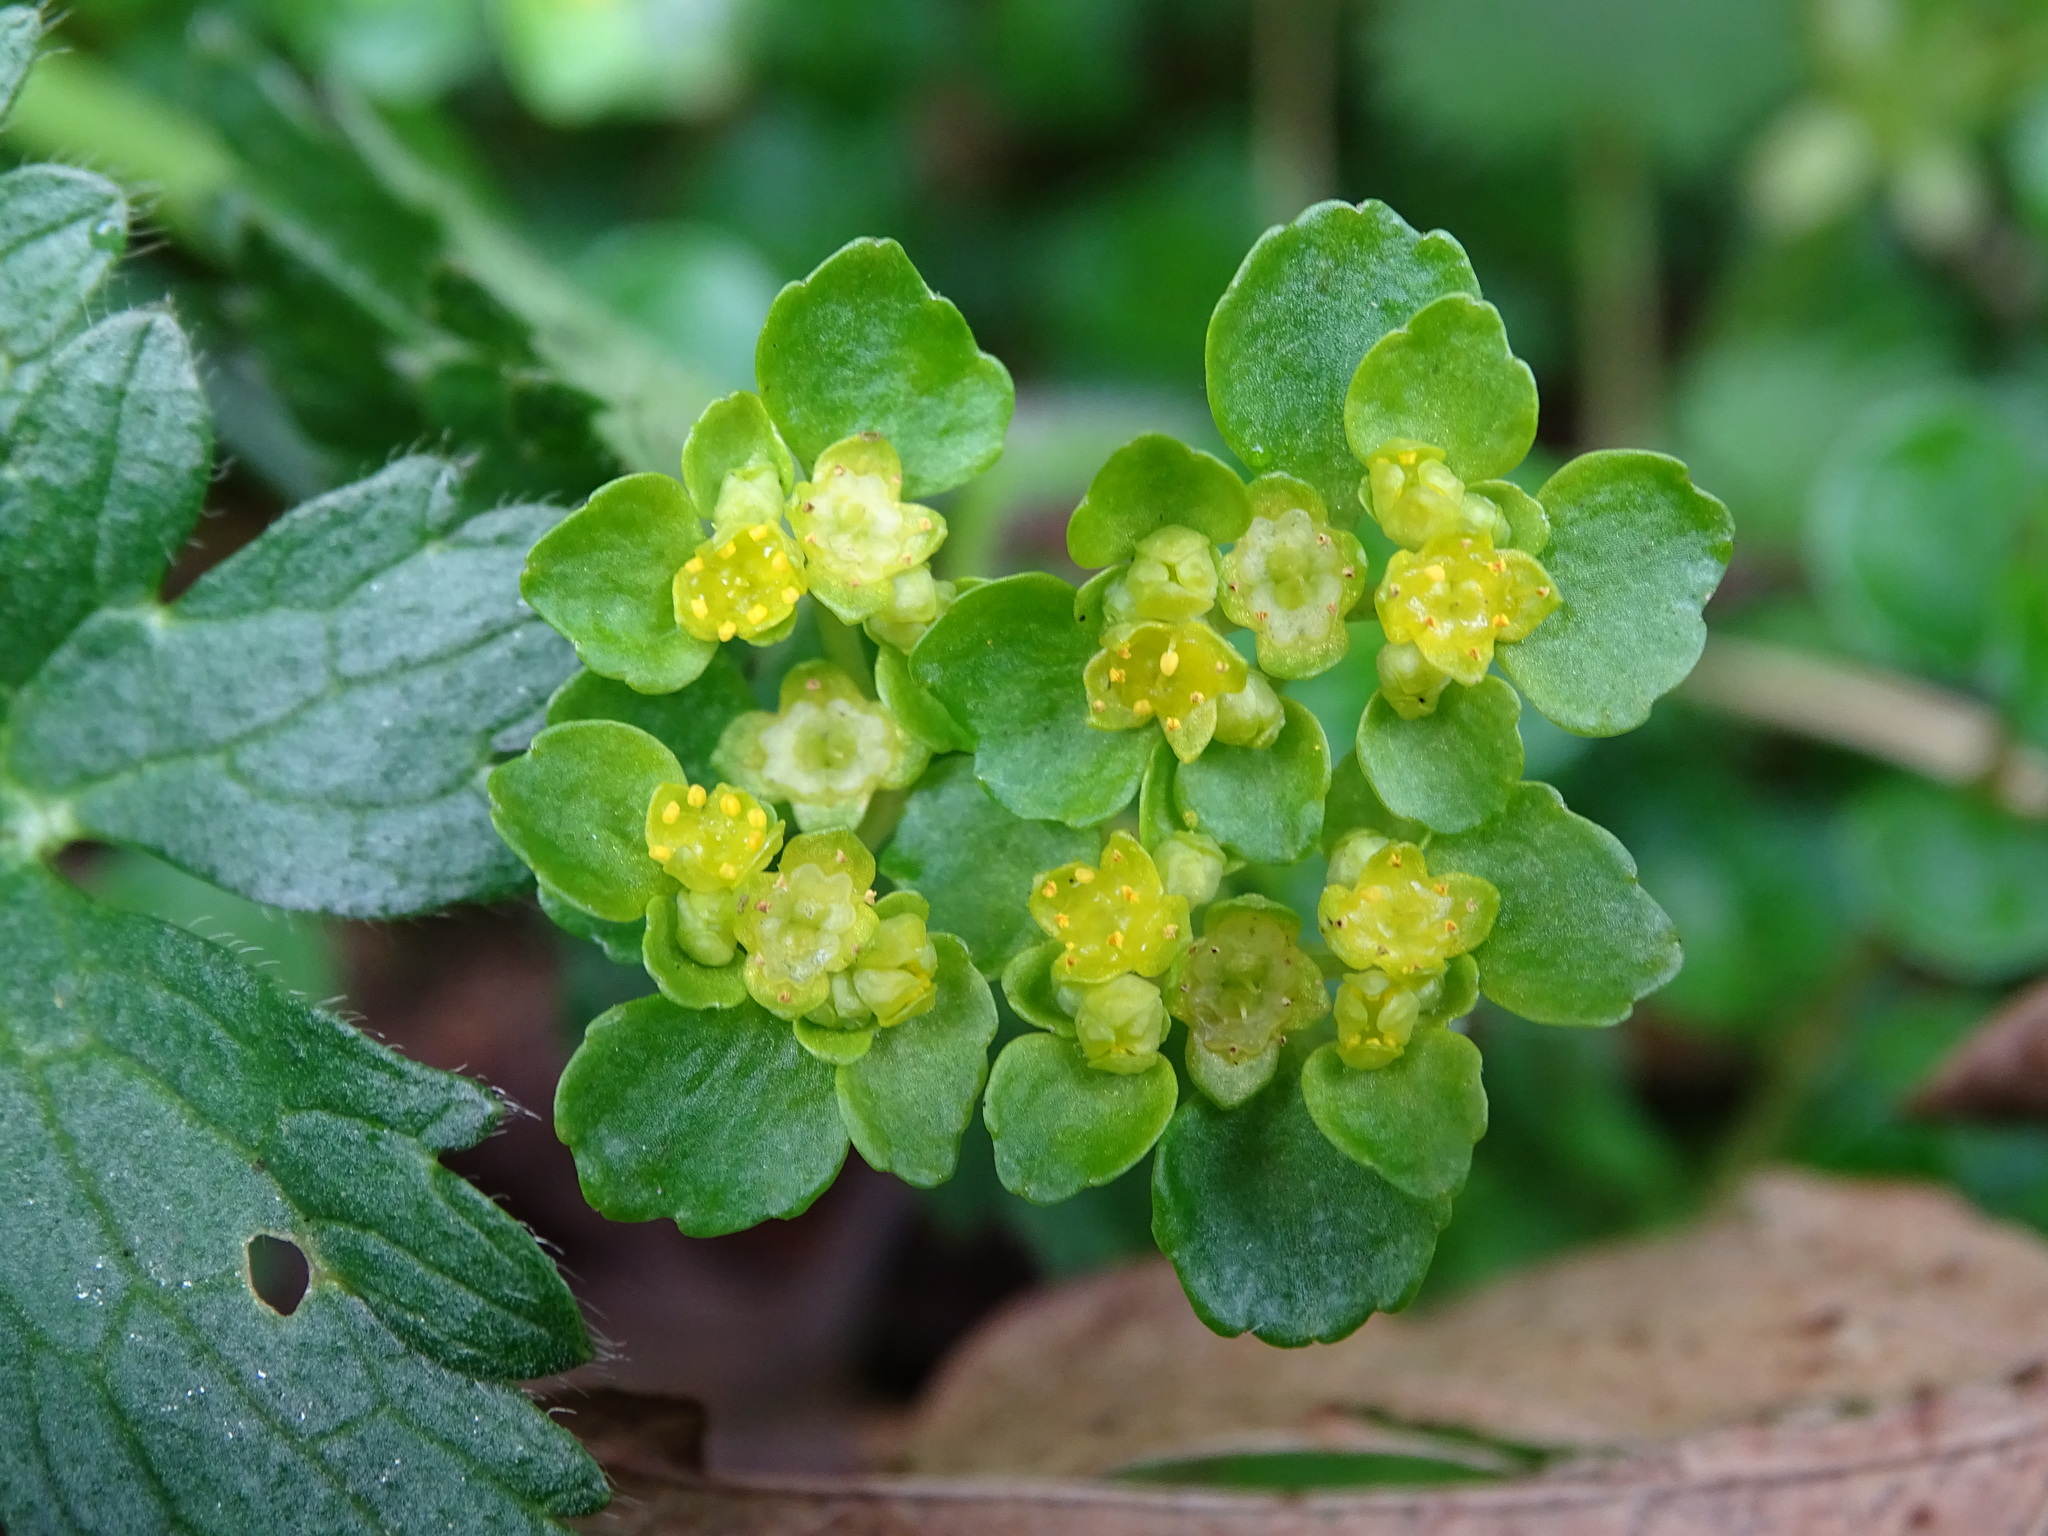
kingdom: Plantae
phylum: Tracheophyta
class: Magnoliopsida
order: Saxifragales
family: Saxifragaceae
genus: Chrysosplenium
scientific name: Chrysosplenium oppositifolium
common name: Opposite-leaved golden-saxifrage
